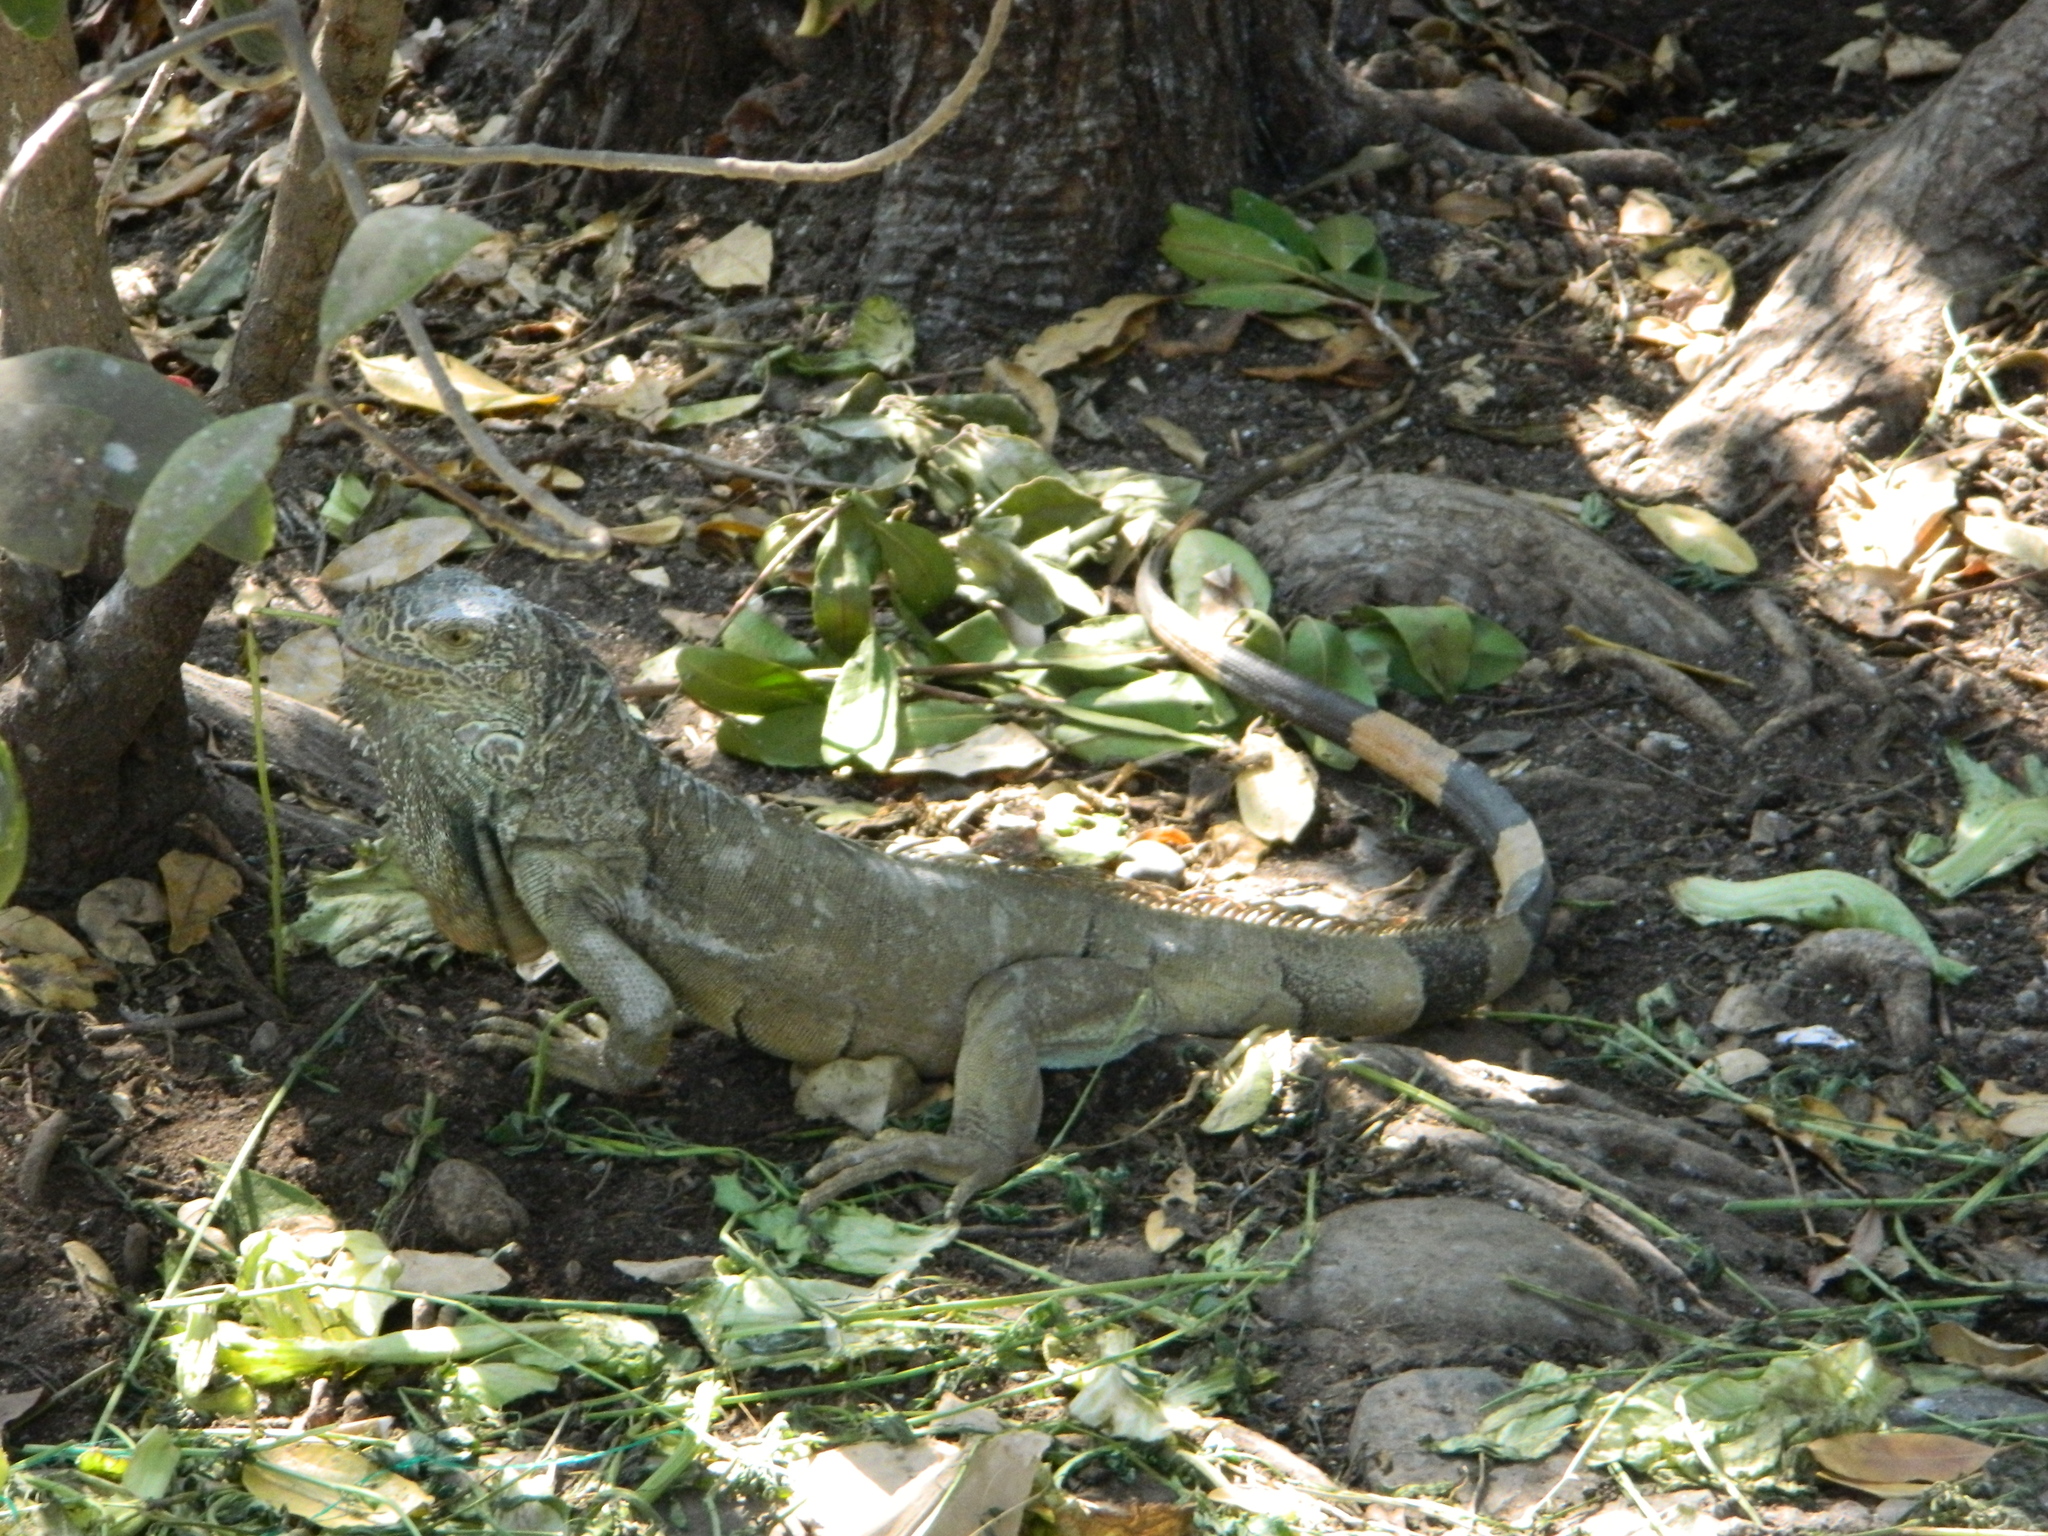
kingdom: Animalia
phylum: Chordata
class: Squamata
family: Iguanidae
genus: Iguana
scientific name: Iguana iguana
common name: Green iguana
